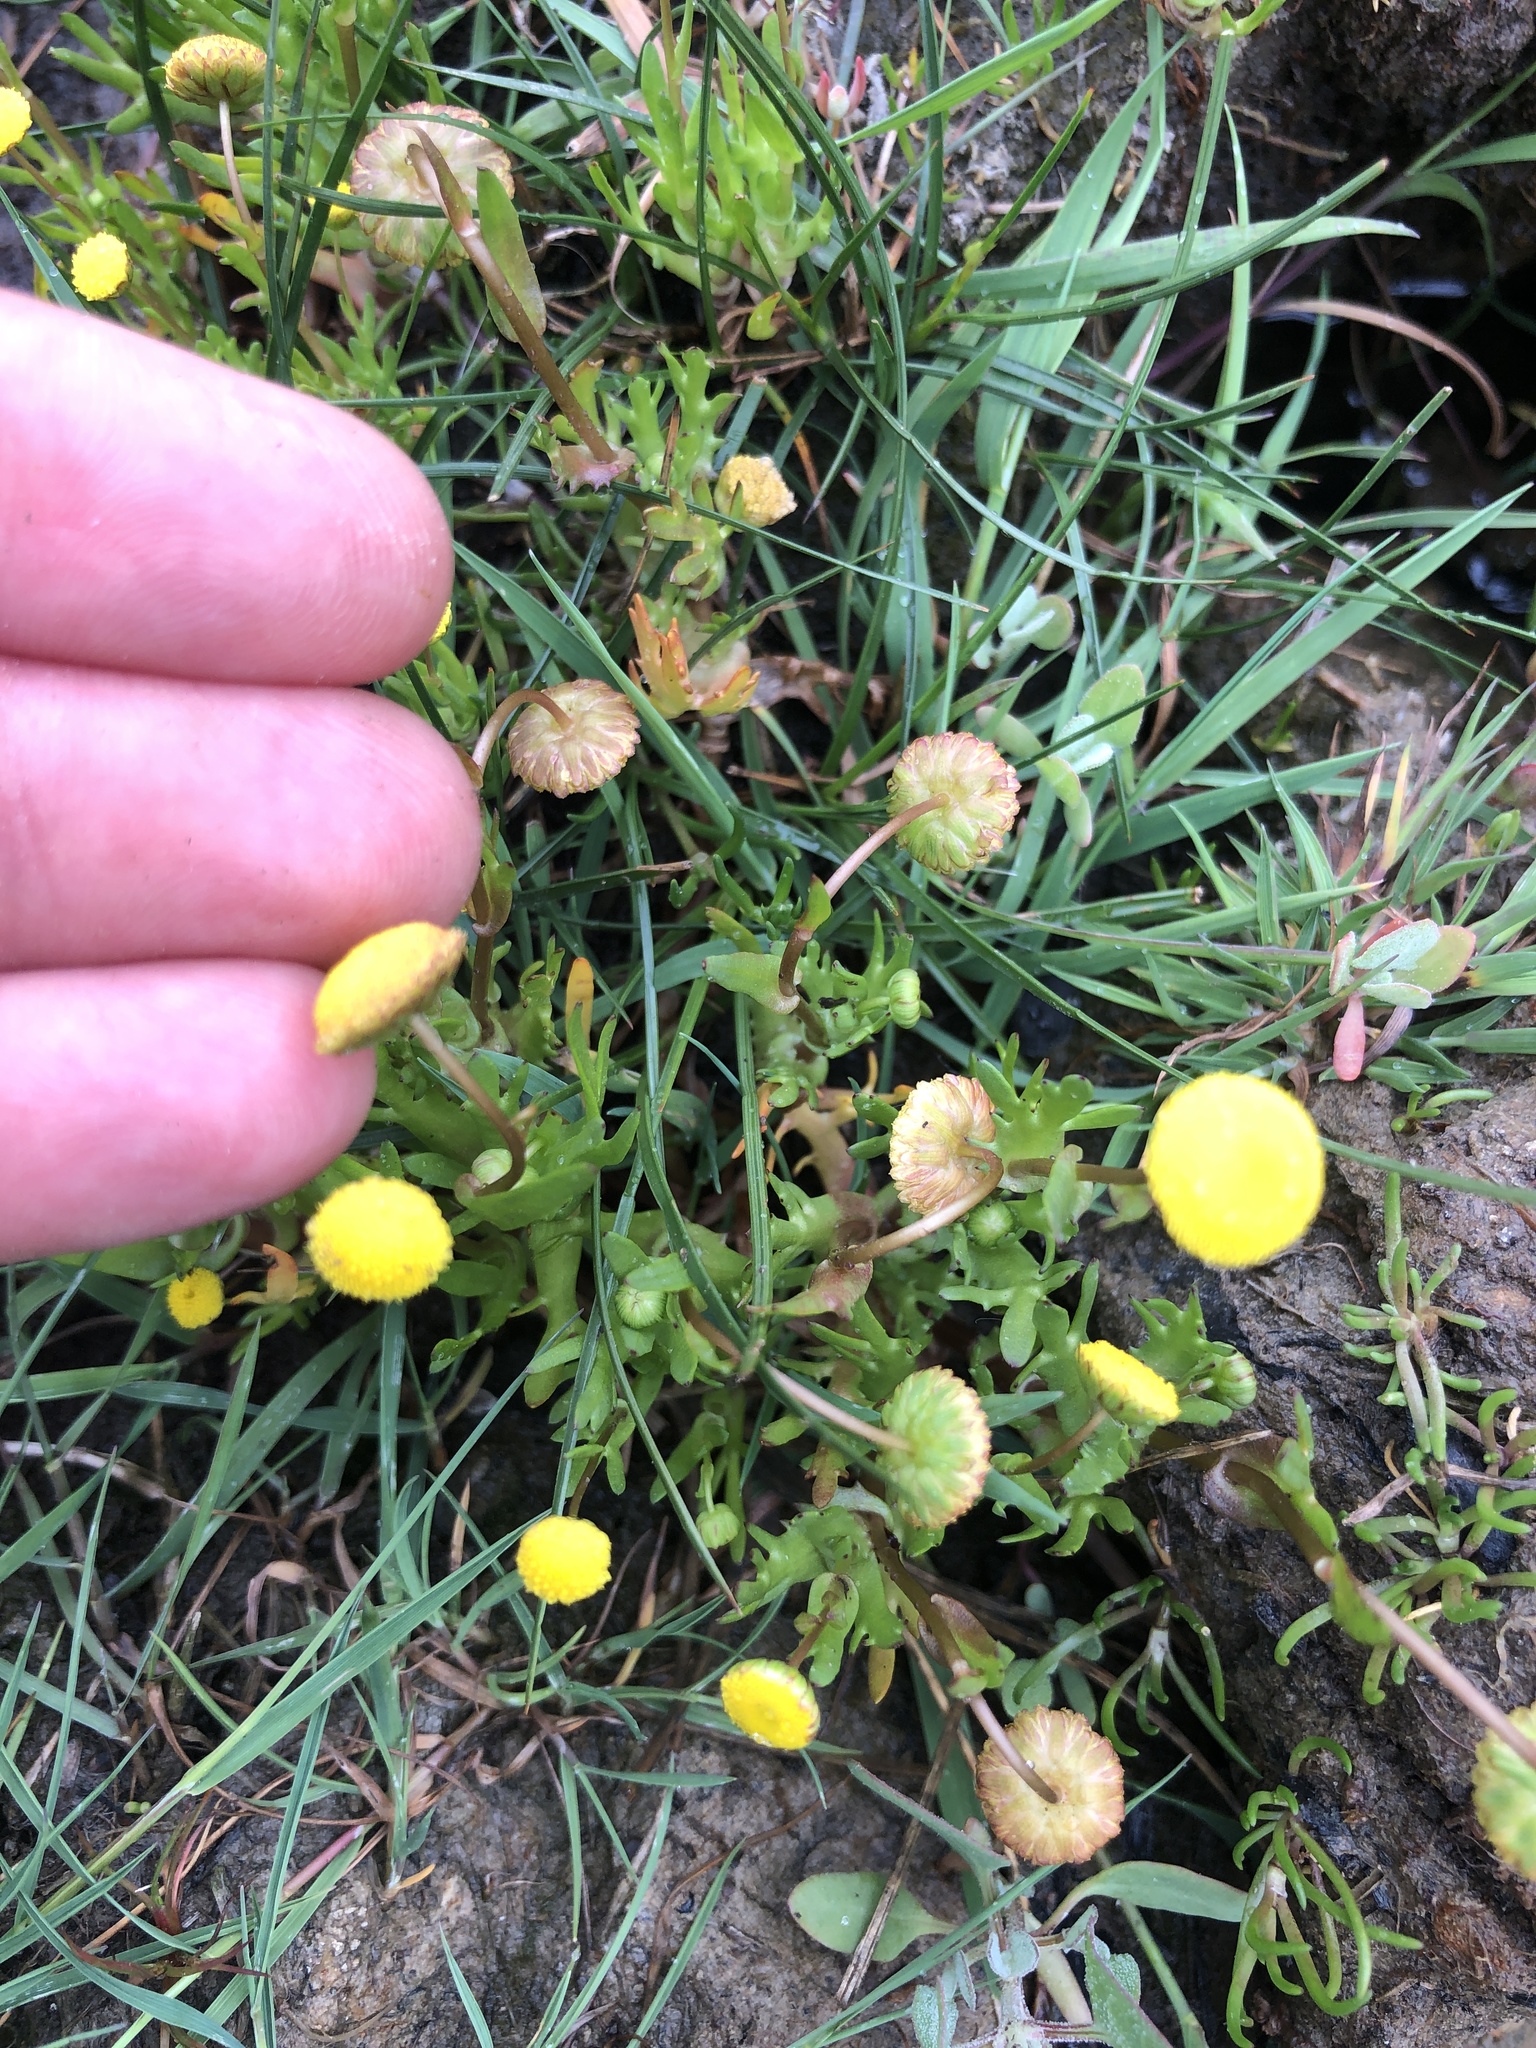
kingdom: Plantae
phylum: Tracheophyta
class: Magnoliopsida
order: Asterales
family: Asteraceae
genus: Cotula
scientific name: Cotula coronopifolia
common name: Buttonweed
